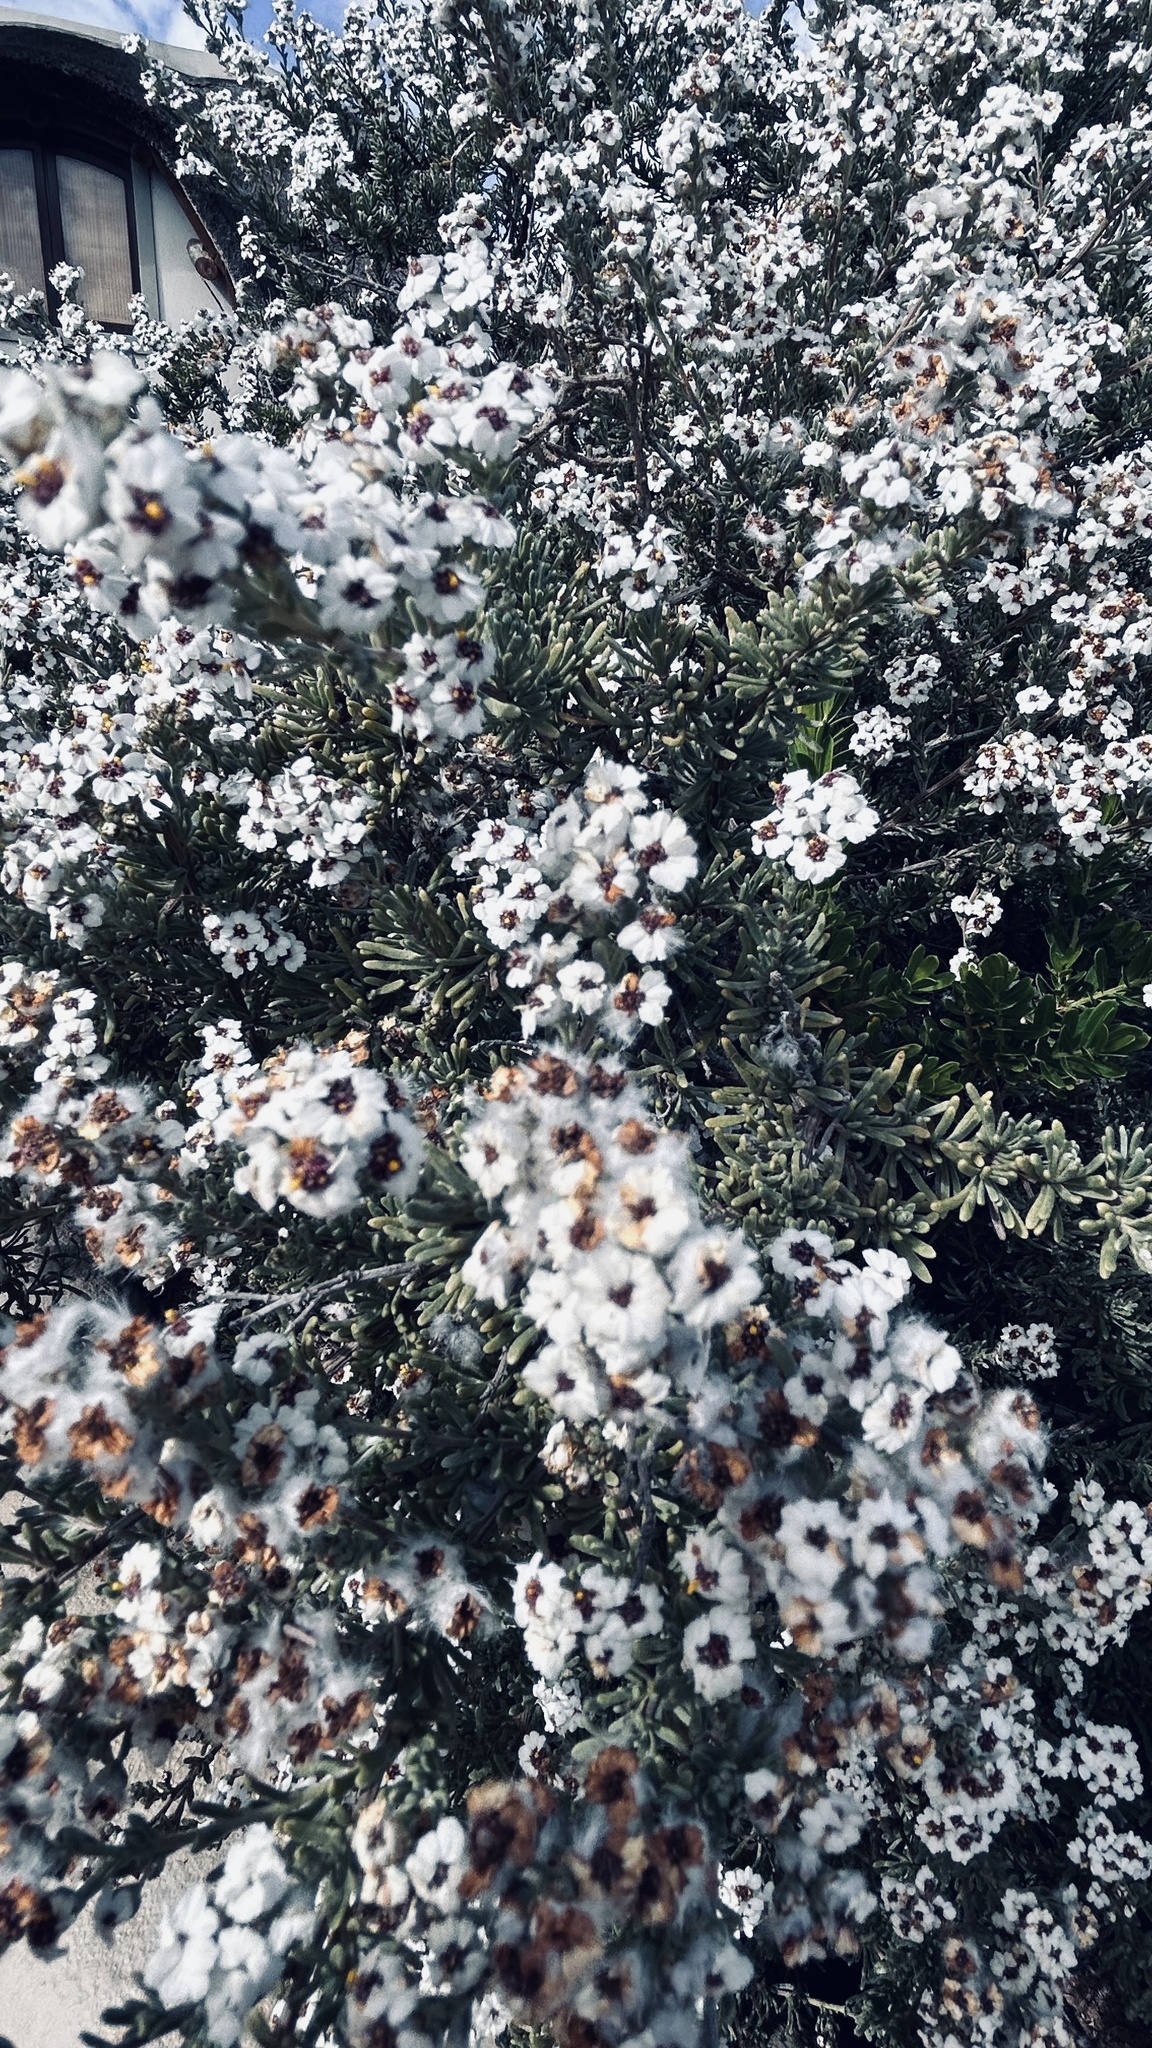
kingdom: Plantae
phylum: Tracheophyta
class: Magnoliopsida
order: Asterales
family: Asteraceae
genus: Eriocephalus
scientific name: Eriocephalus africanus
